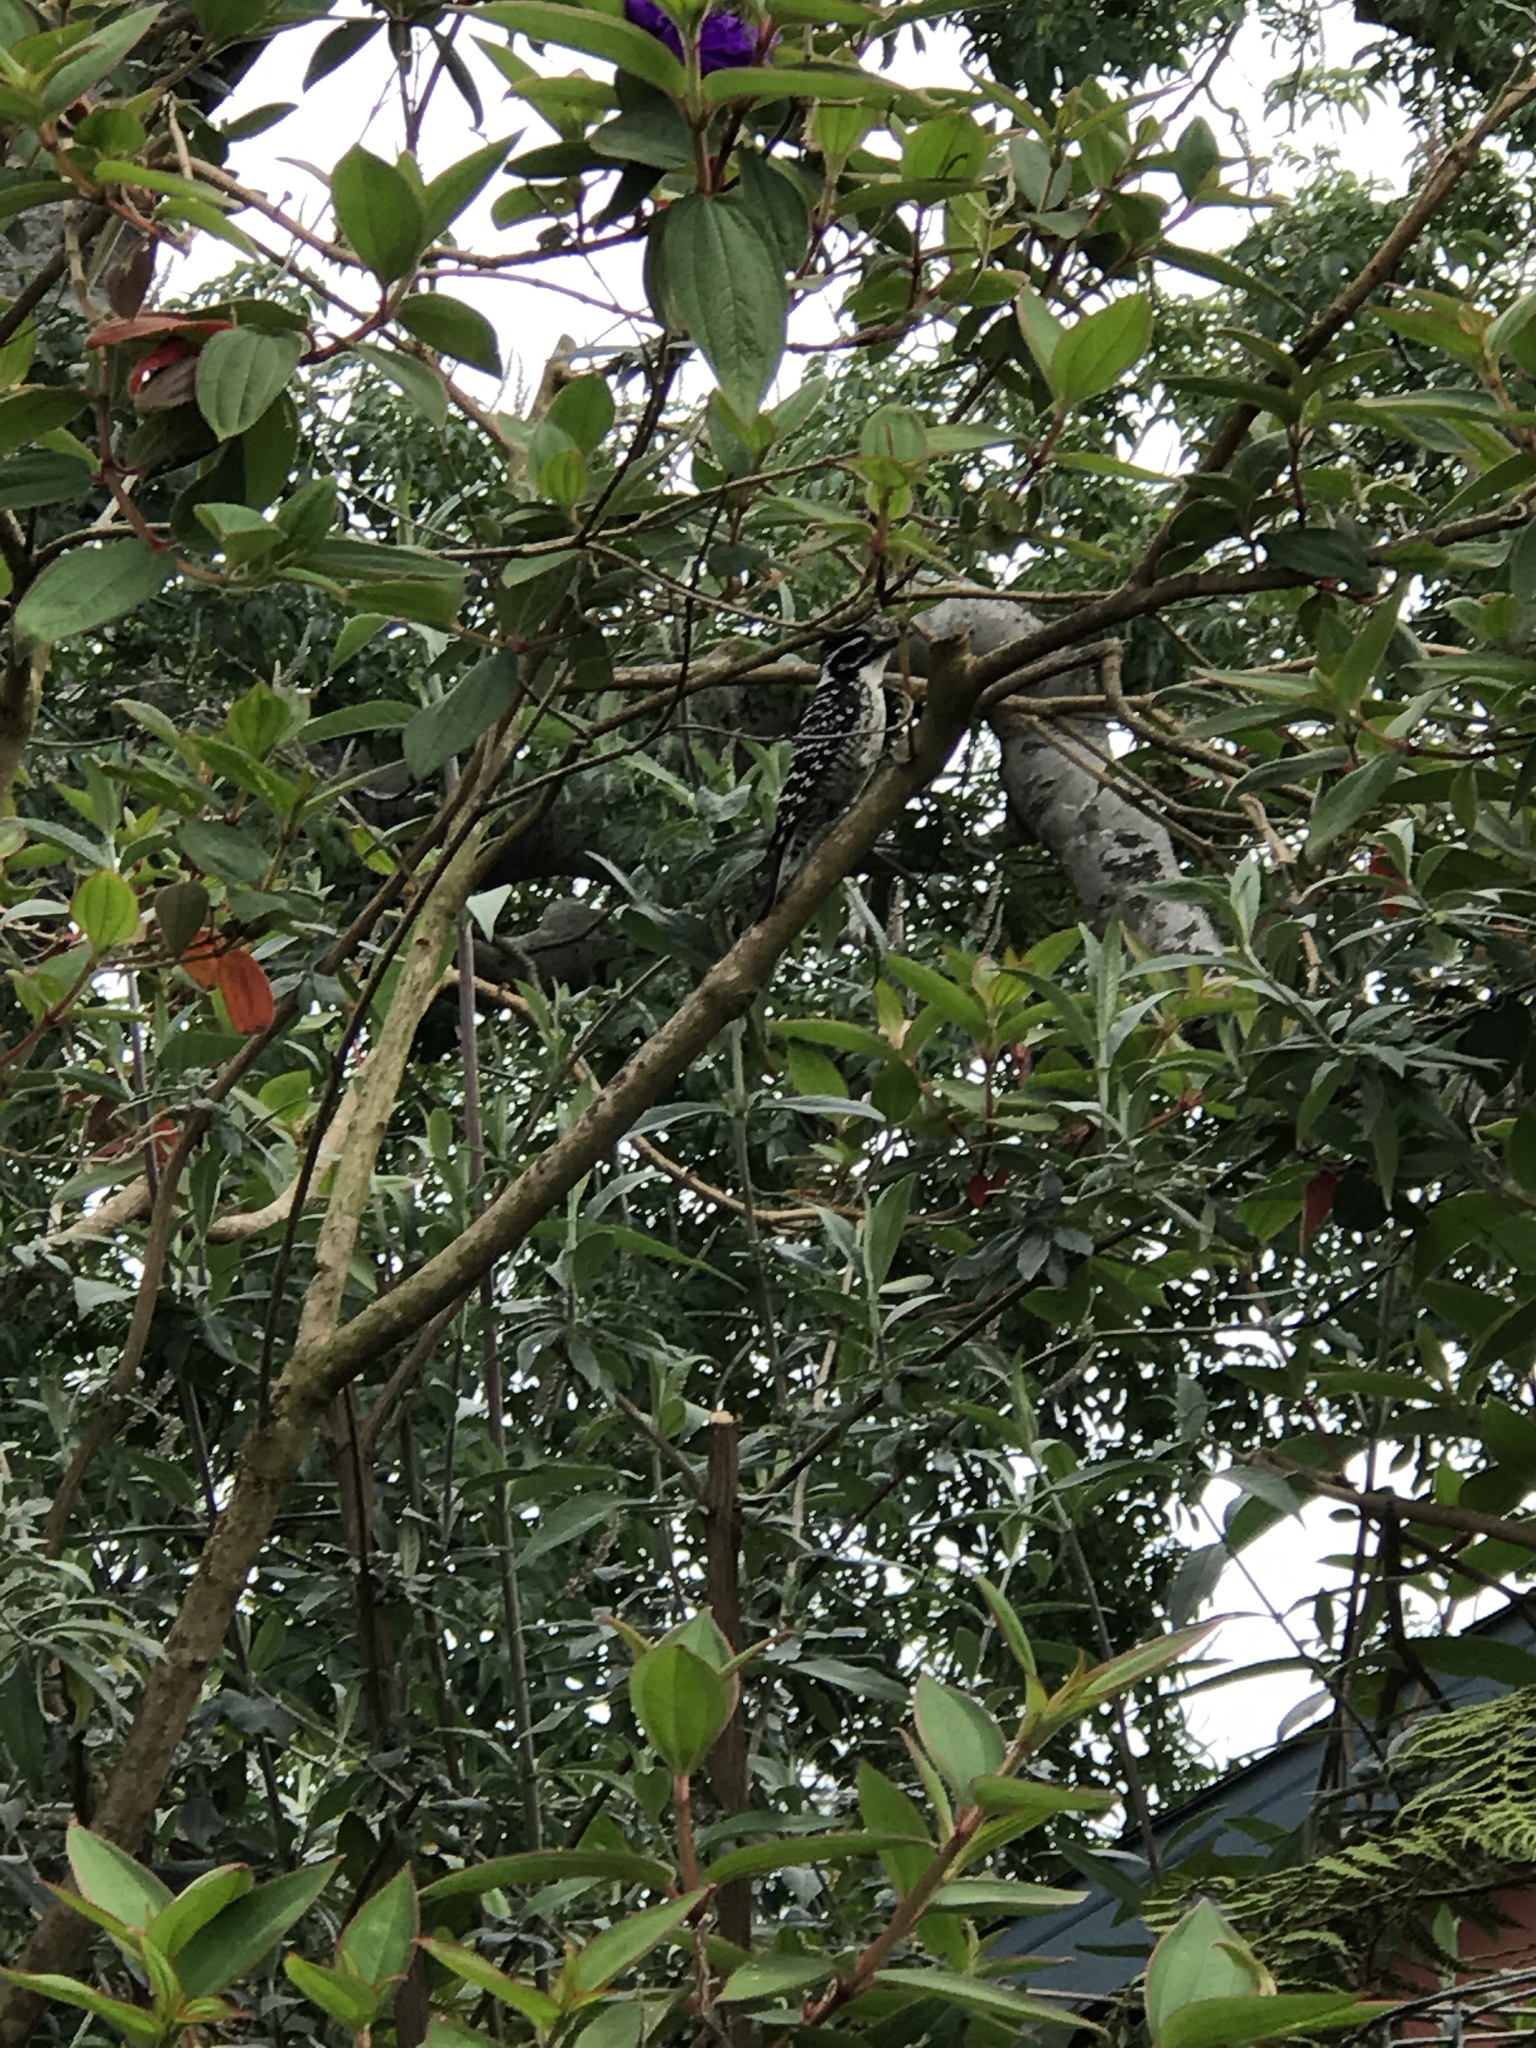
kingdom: Animalia
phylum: Chordata
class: Aves
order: Piciformes
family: Picidae
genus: Dryobates
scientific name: Dryobates nuttallii
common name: Nuttall's woodpecker
